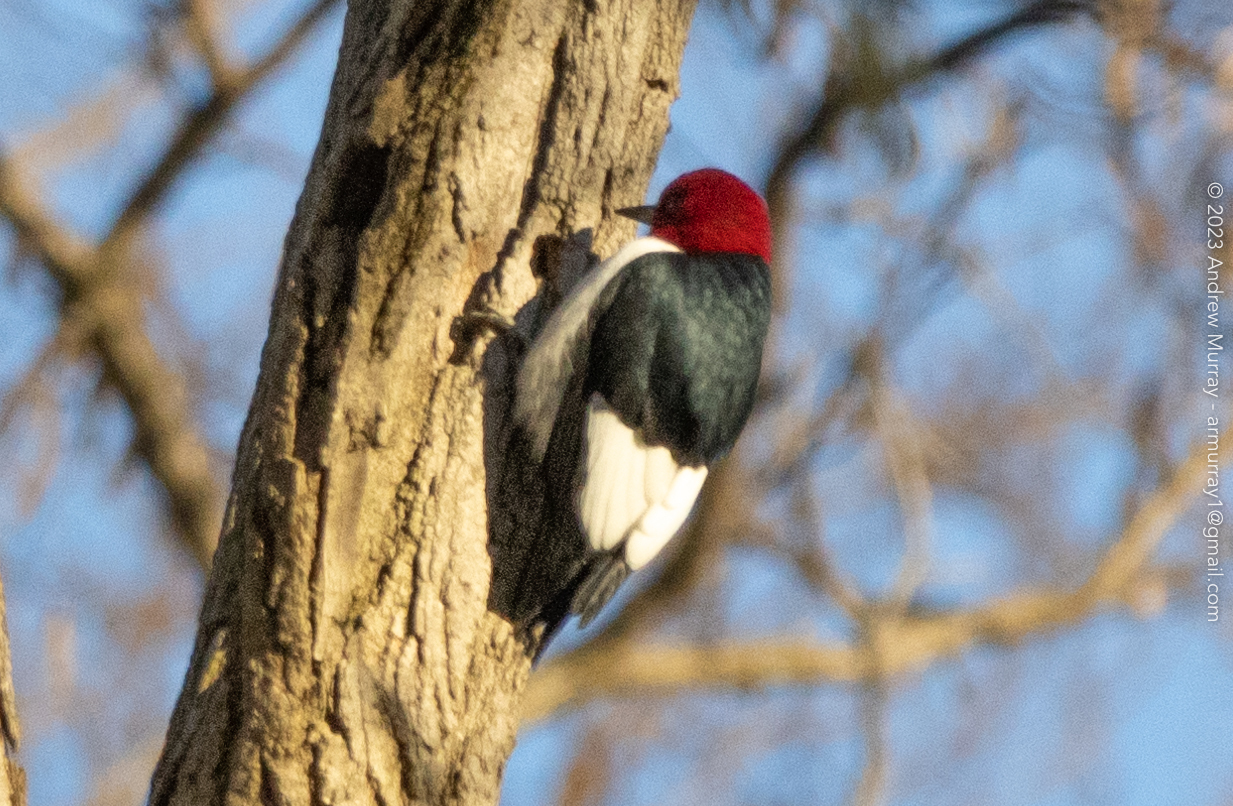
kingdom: Animalia
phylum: Chordata
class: Aves
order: Piciformes
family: Picidae
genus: Melanerpes
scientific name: Melanerpes erythrocephalus
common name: Red-headed woodpecker
